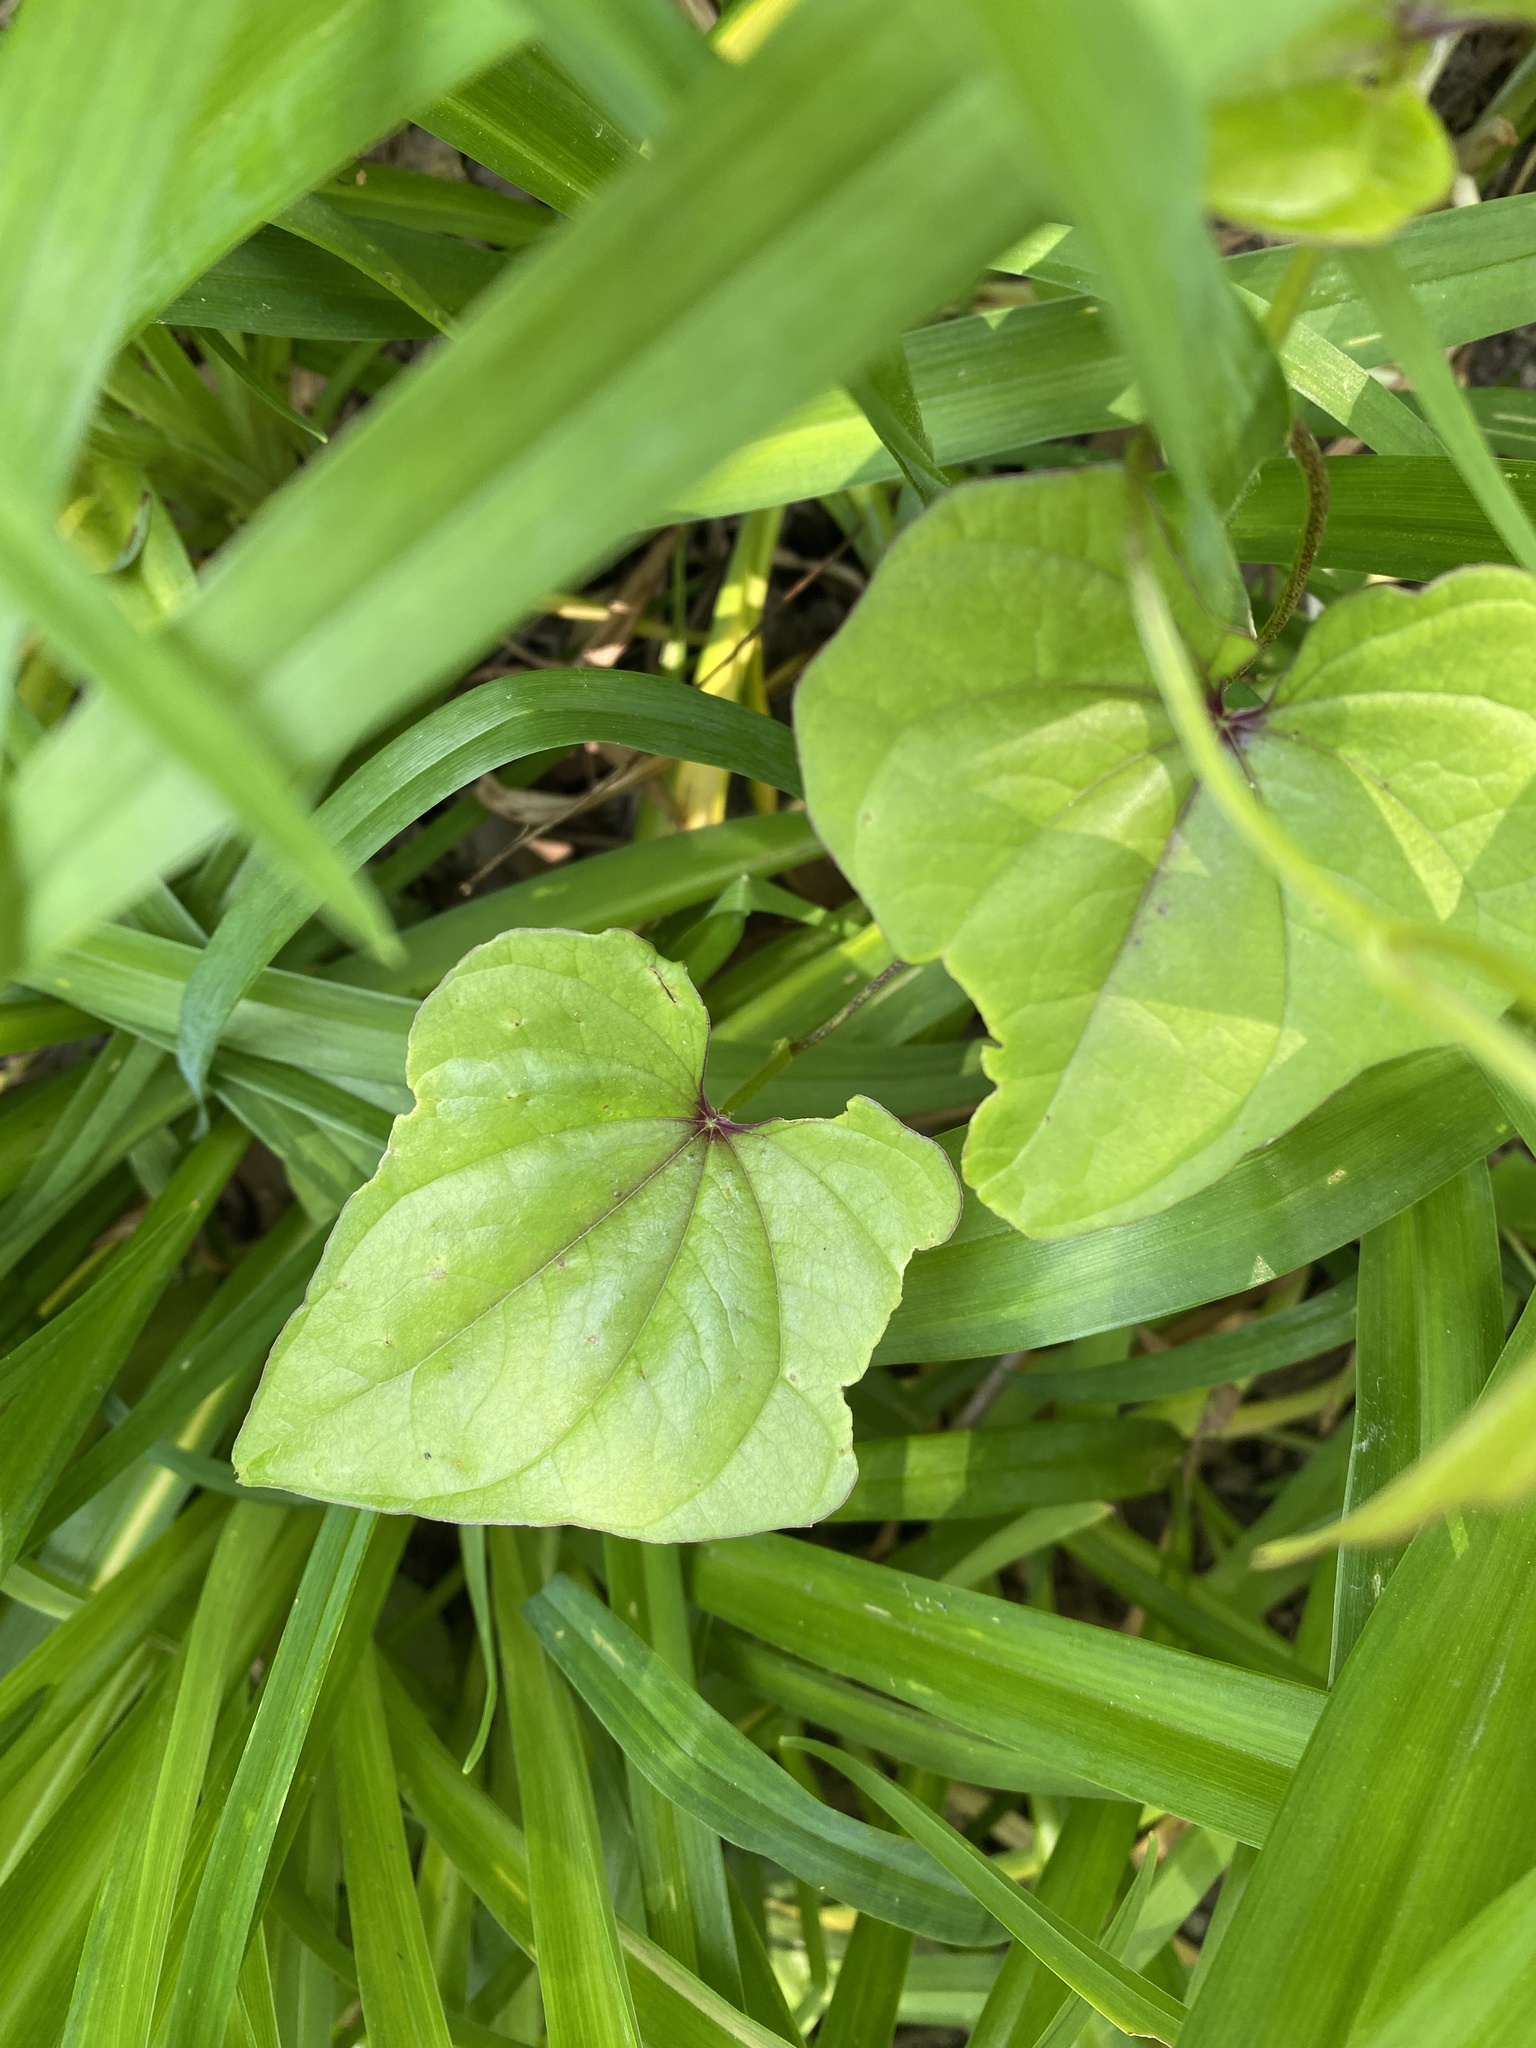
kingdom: Plantae
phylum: Tracheophyta
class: Liliopsida
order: Dioscoreales
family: Dioscoreaceae
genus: Dioscorea
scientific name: Dioscorea polystachya
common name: Chinese yam
